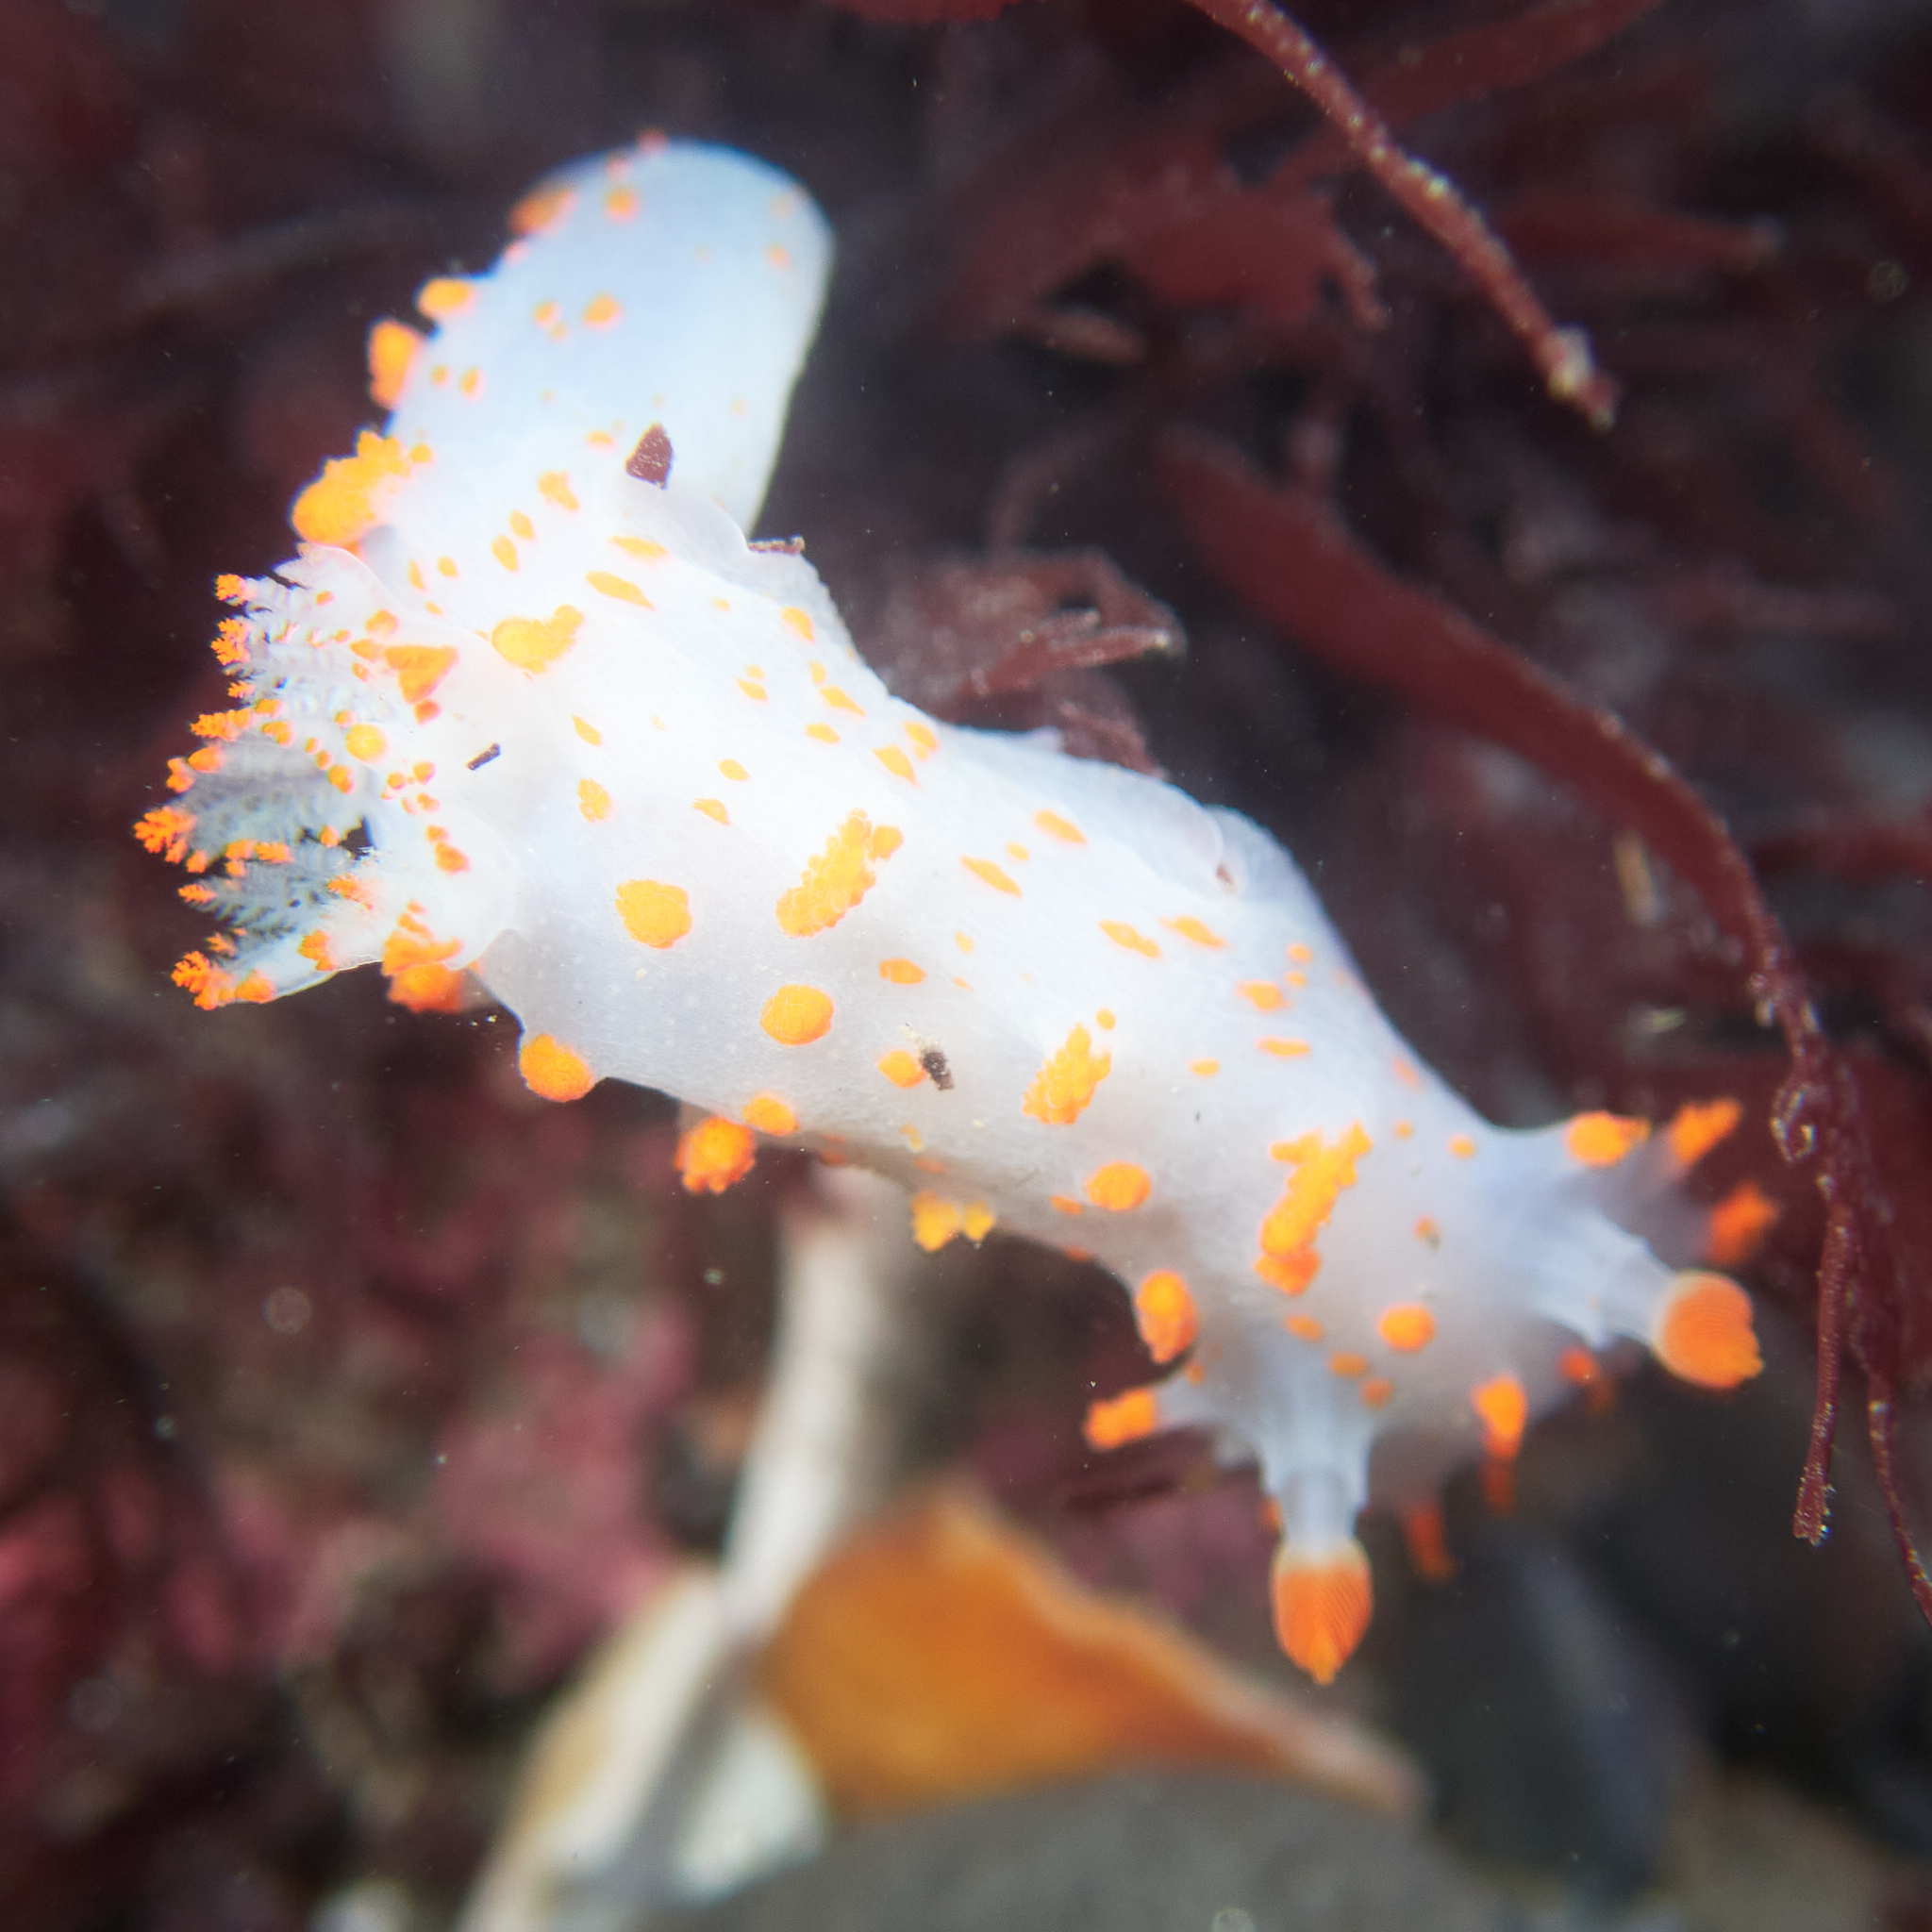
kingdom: Animalia
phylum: Mollusca
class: Gastropoda
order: Nudibranchia
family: Polyceridae
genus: Triopha
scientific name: Triopha catalinae
